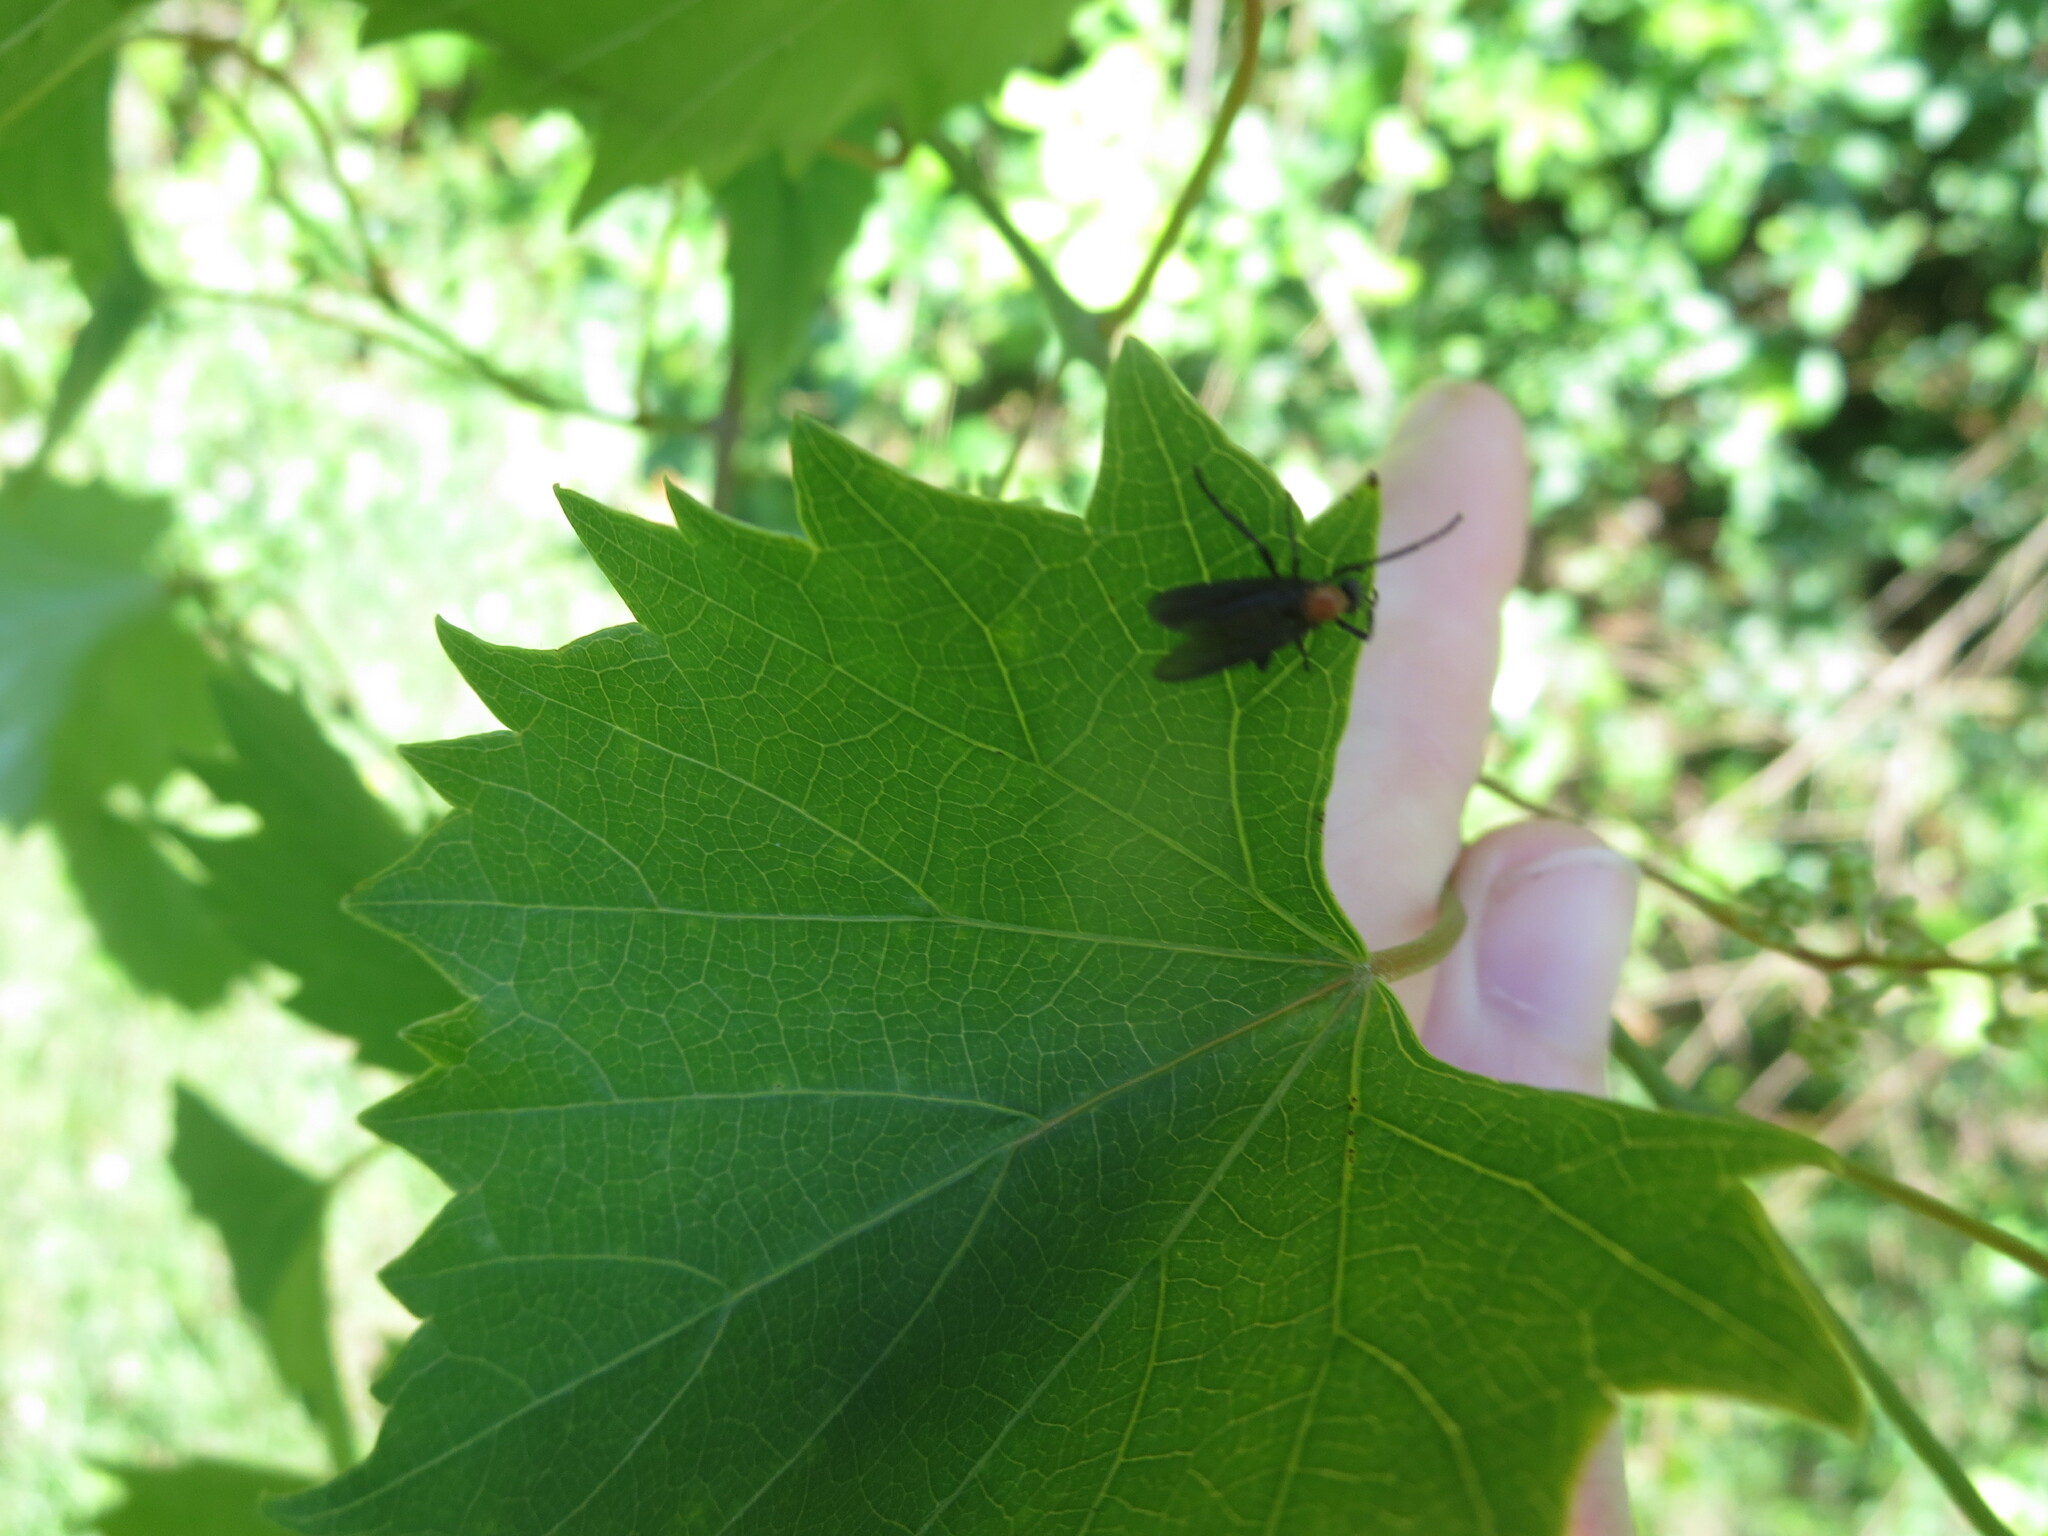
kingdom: Animalia
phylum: Arthropoda
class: Insecta
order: Diptera
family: Bibionidae
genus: Plecia
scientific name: Plecia nearctica
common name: March fly
